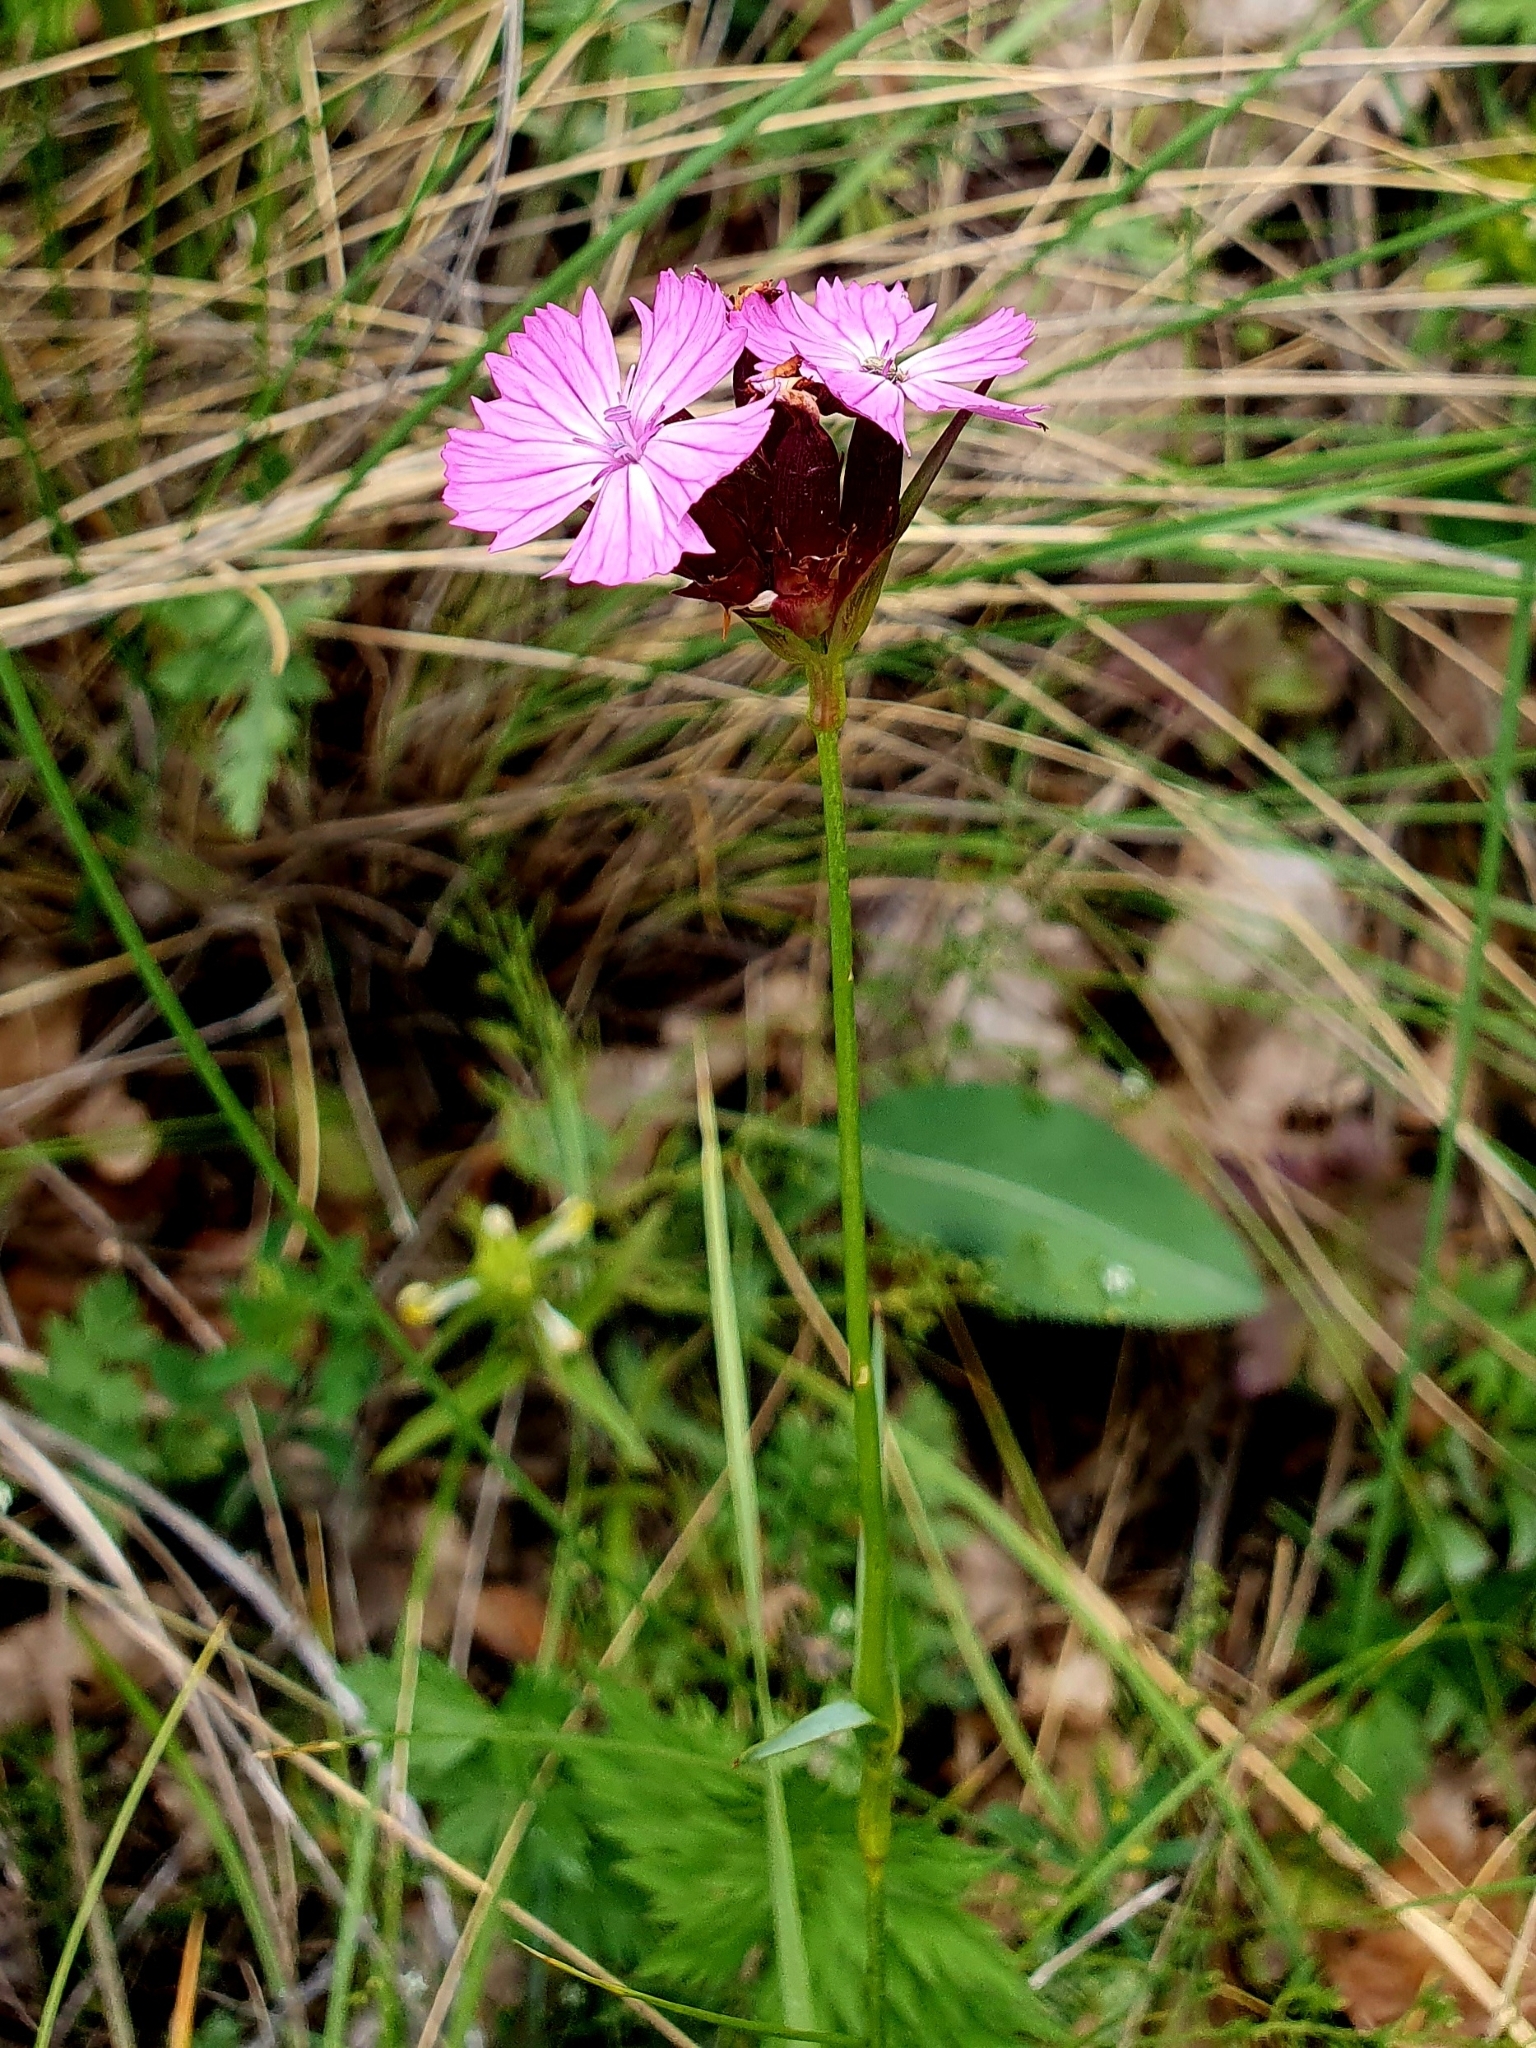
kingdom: Plantae
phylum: Tracheophyta
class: Magnoliopsida
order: Caryophyllales
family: Caryophyllaceae
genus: Dianthus
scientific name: Dianthus capitatus
